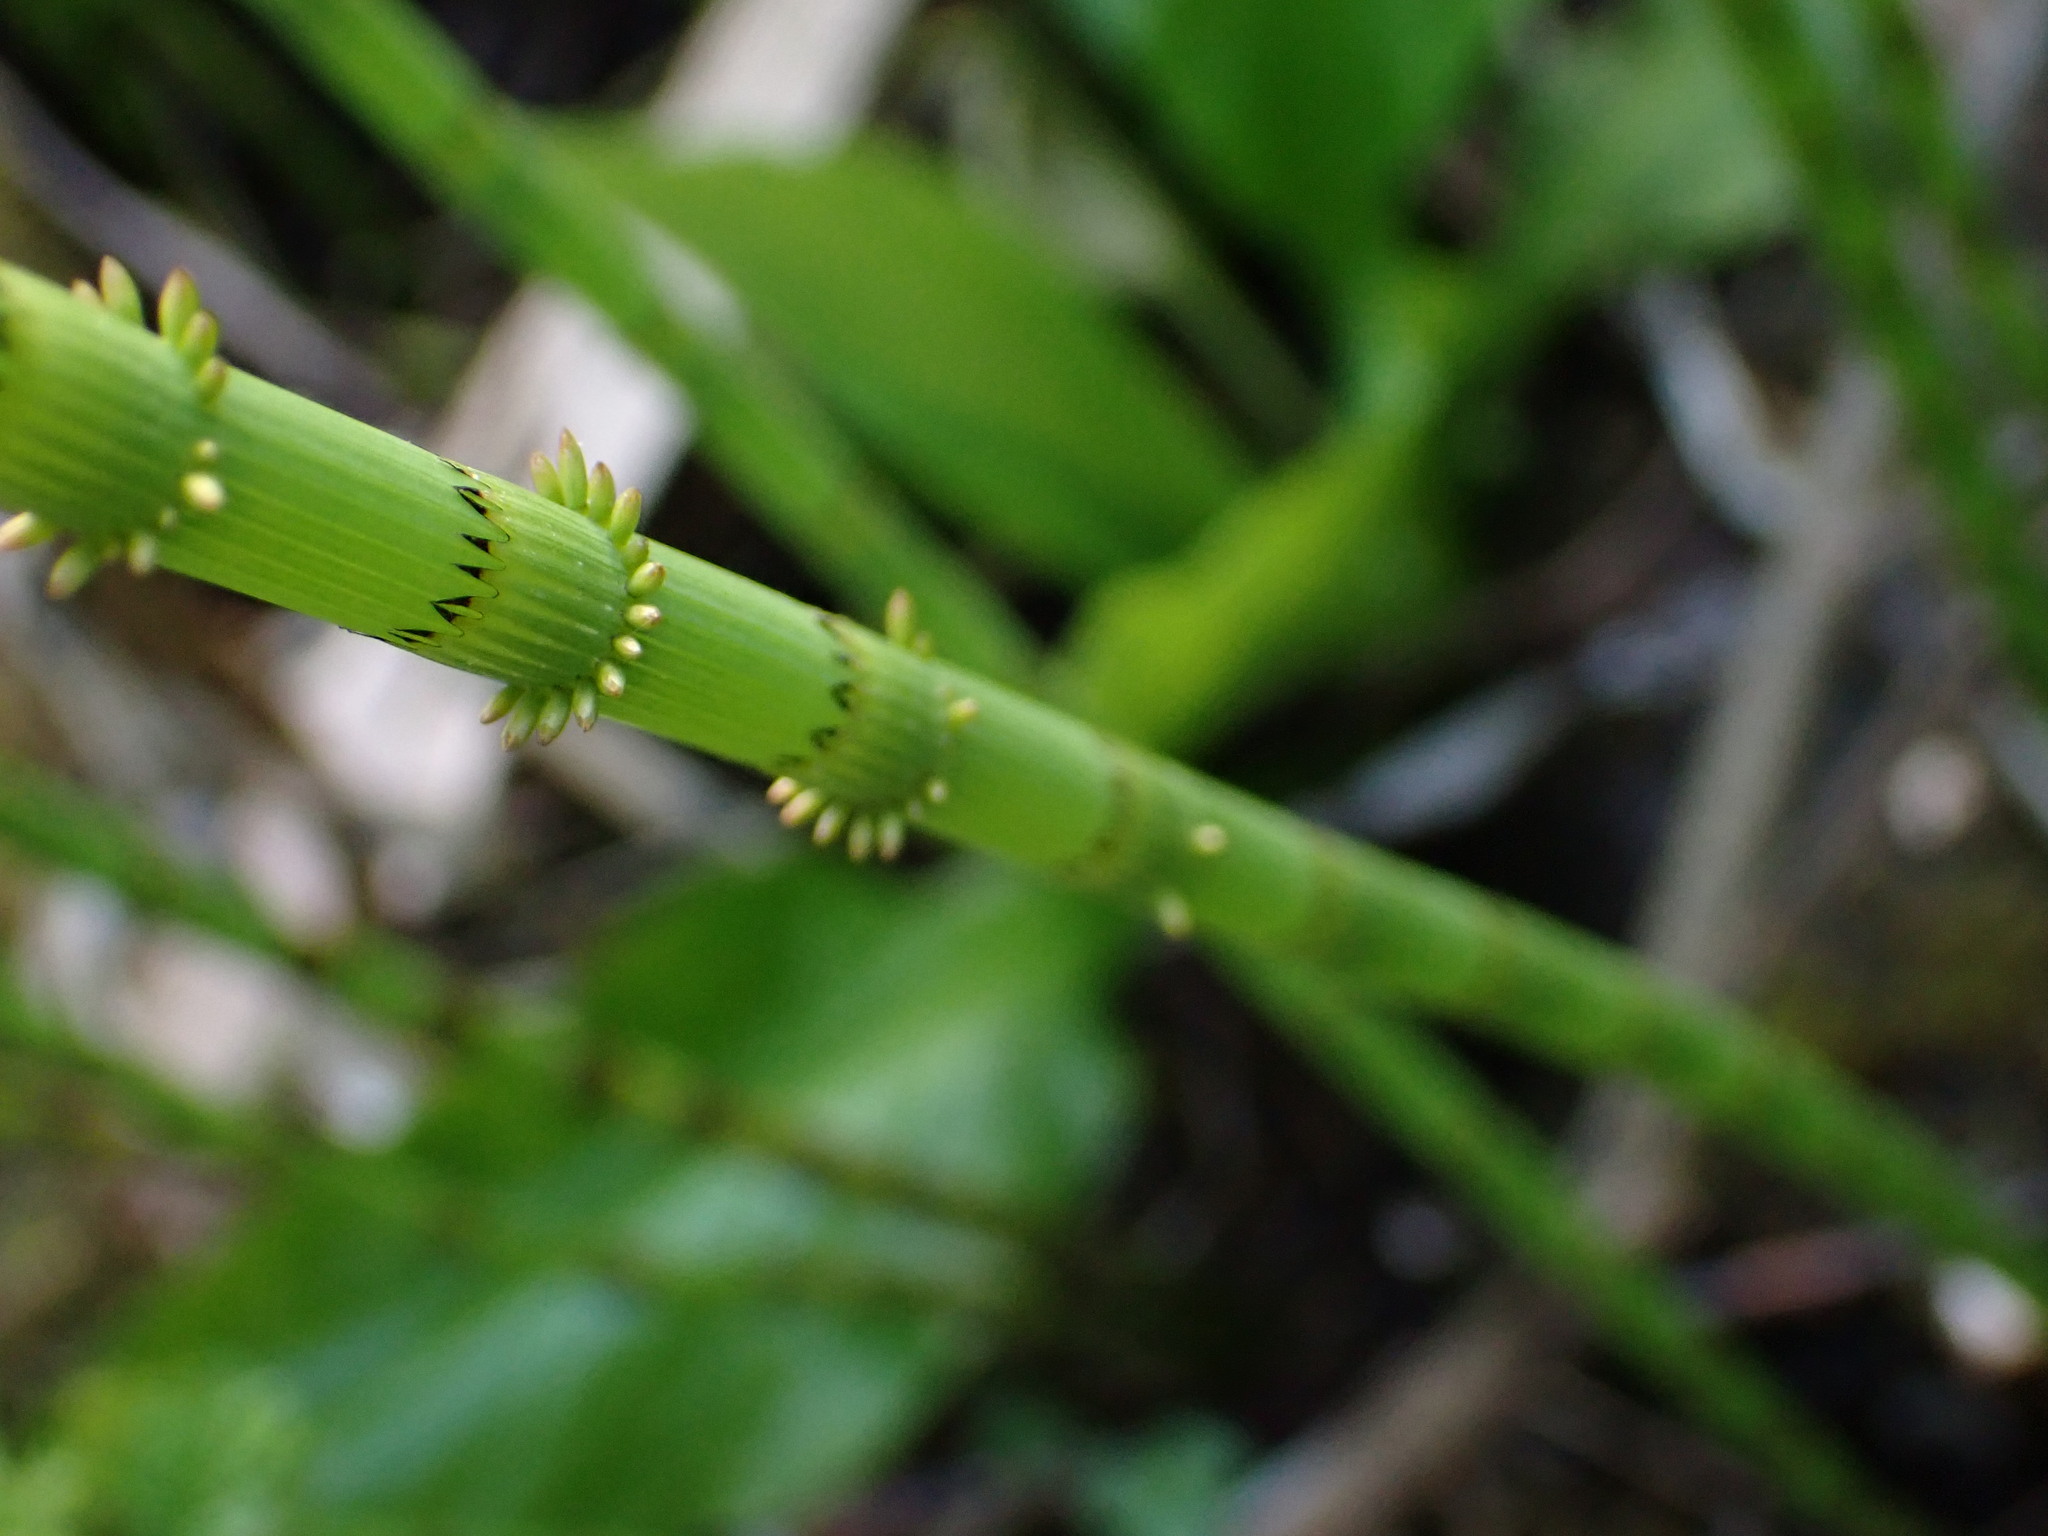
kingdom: Plantae
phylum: Tracheophyta
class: Polypodiopsida
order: Equisetales
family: Equisetaceae
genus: Equisetum
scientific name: Equisetum fluviatile
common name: Water horsetail
